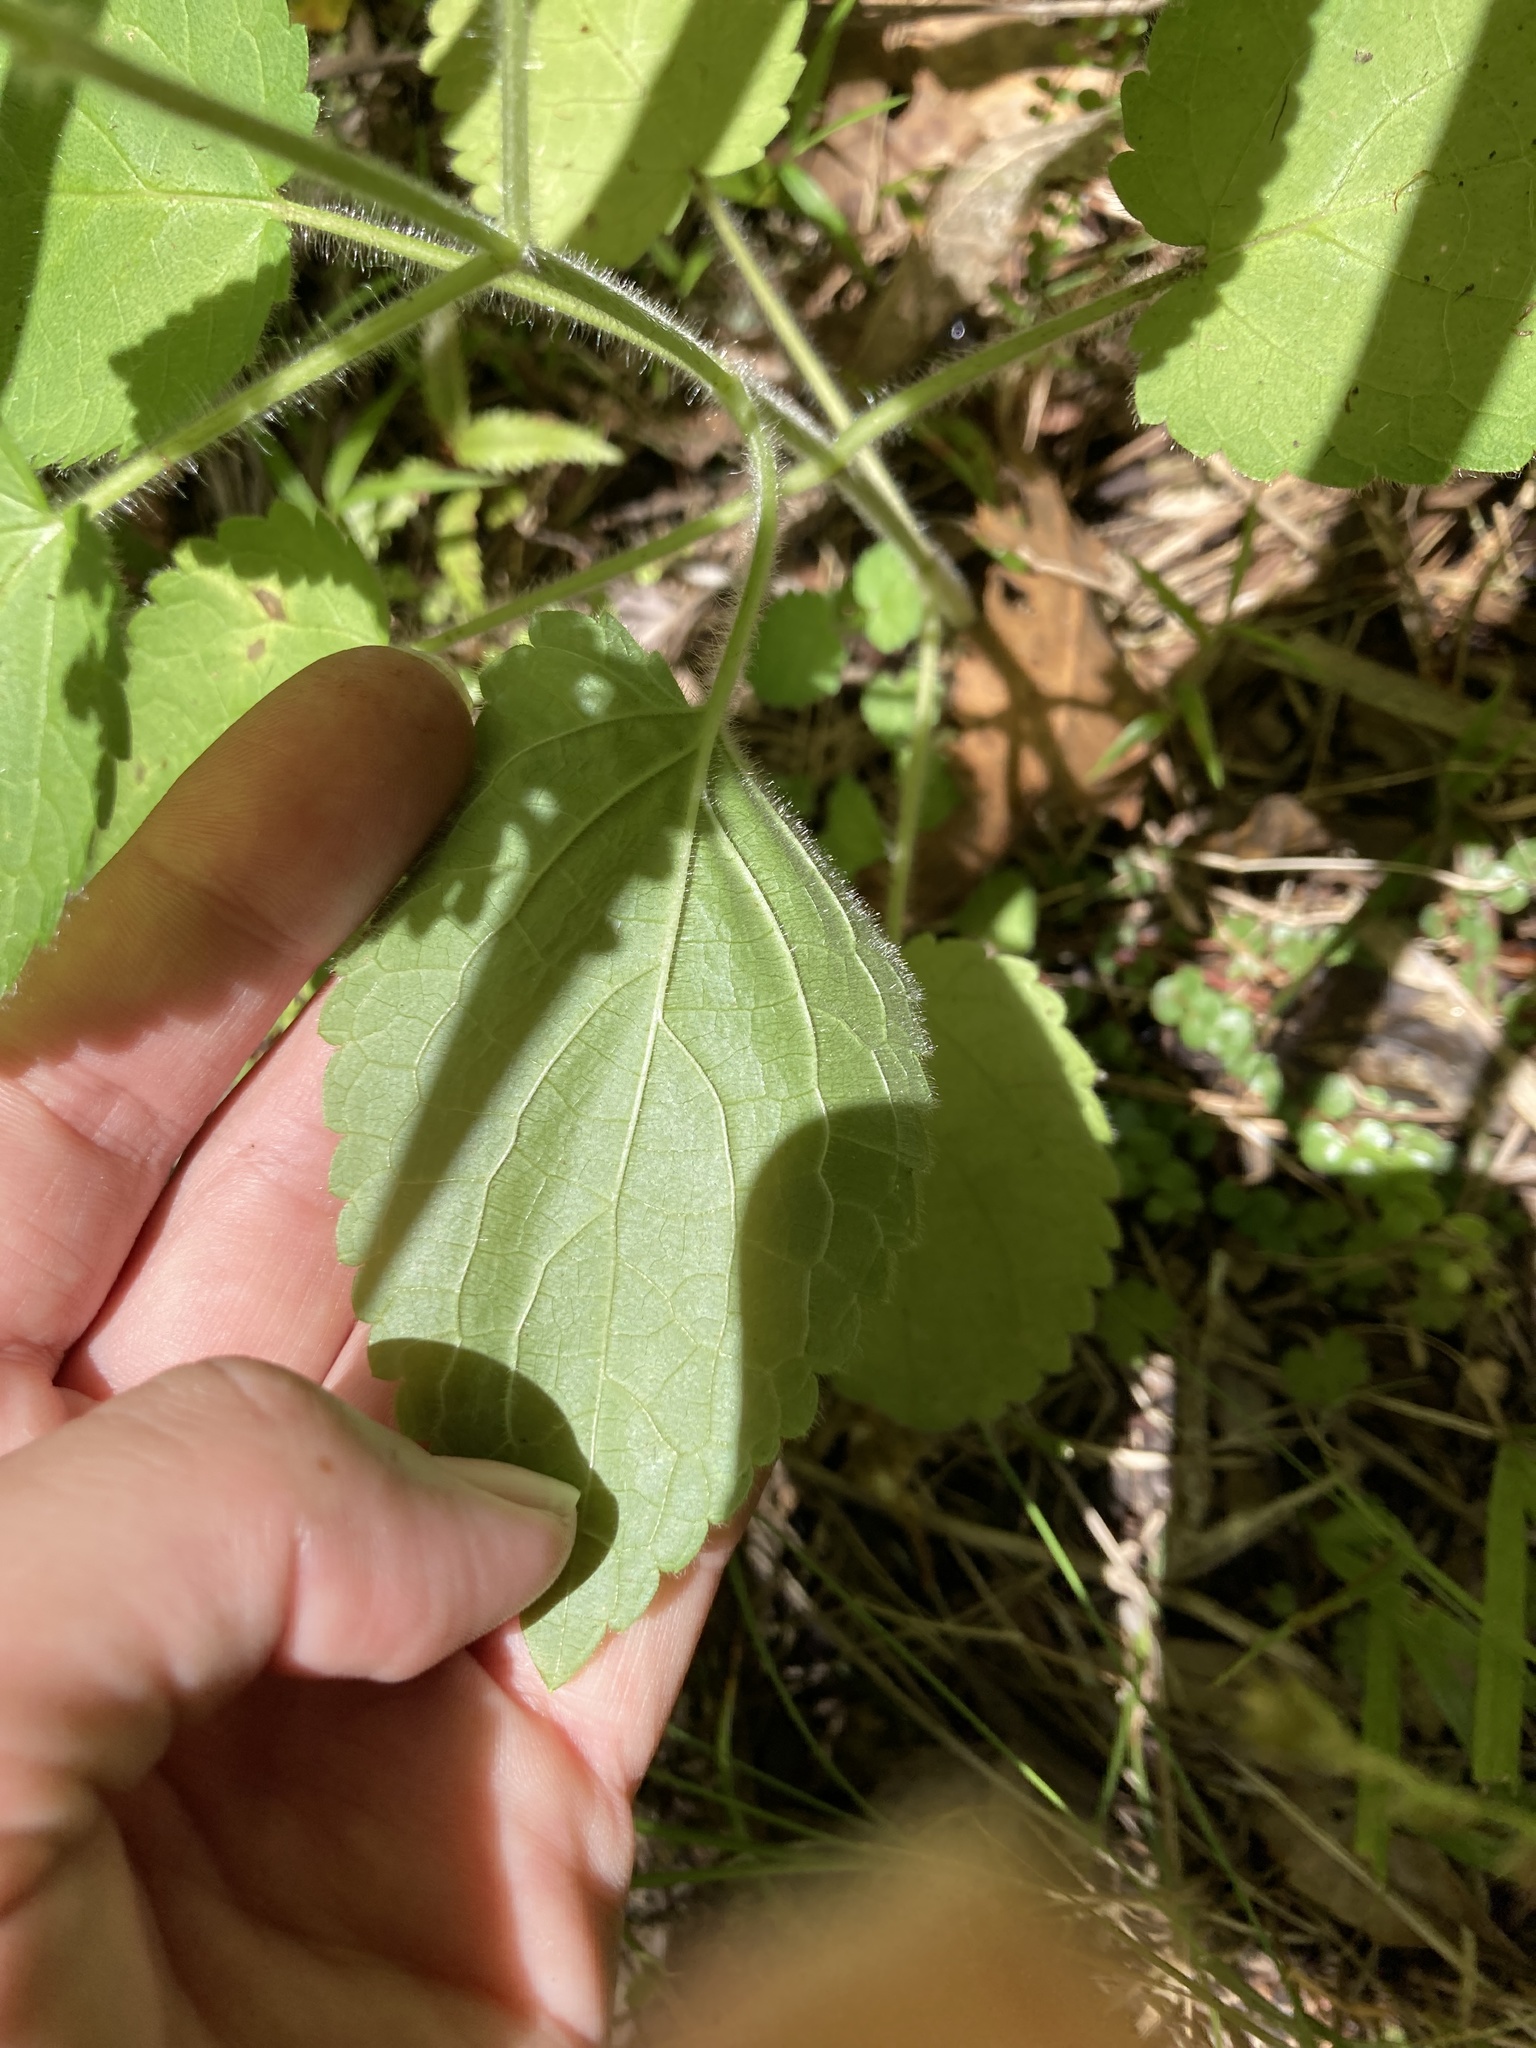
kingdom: Plantae
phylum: Tracheophyta
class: Magnoliopsida
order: Lamiales
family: Lamiaceae
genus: Stachys
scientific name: Stachys sylvatica
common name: Hedge woundwort
